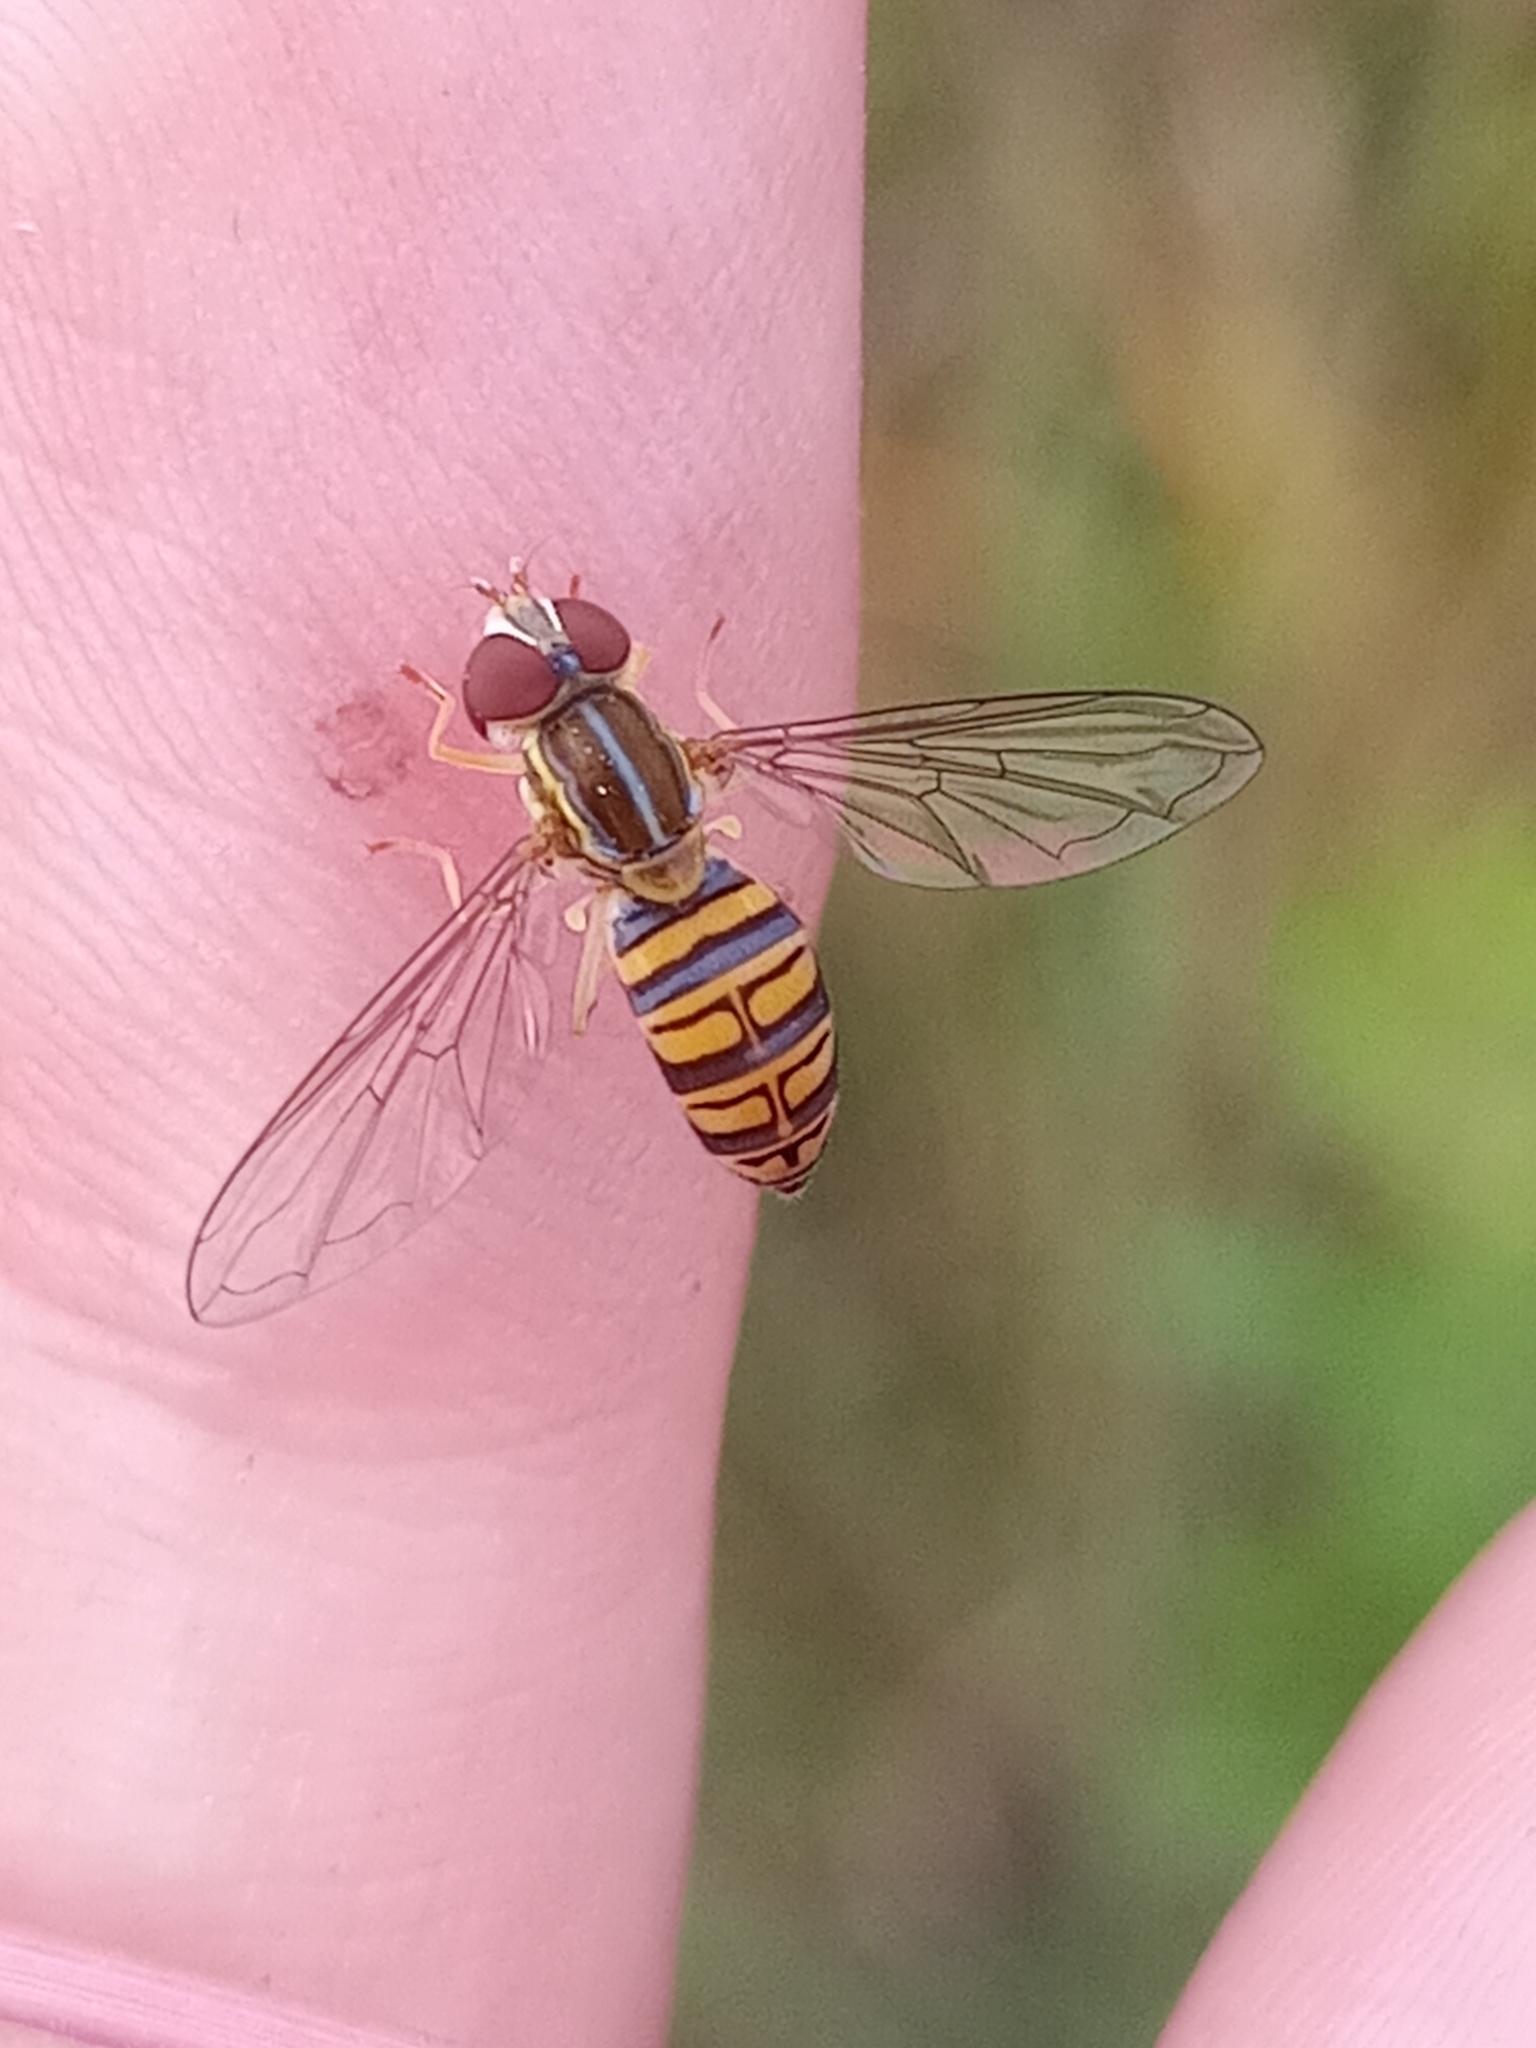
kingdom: Animalia
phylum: Arthropoda
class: Insecta
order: Diptera
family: Syrphidae
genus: Toxomerus
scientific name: Toxomerus politus
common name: Maize calligrapher
